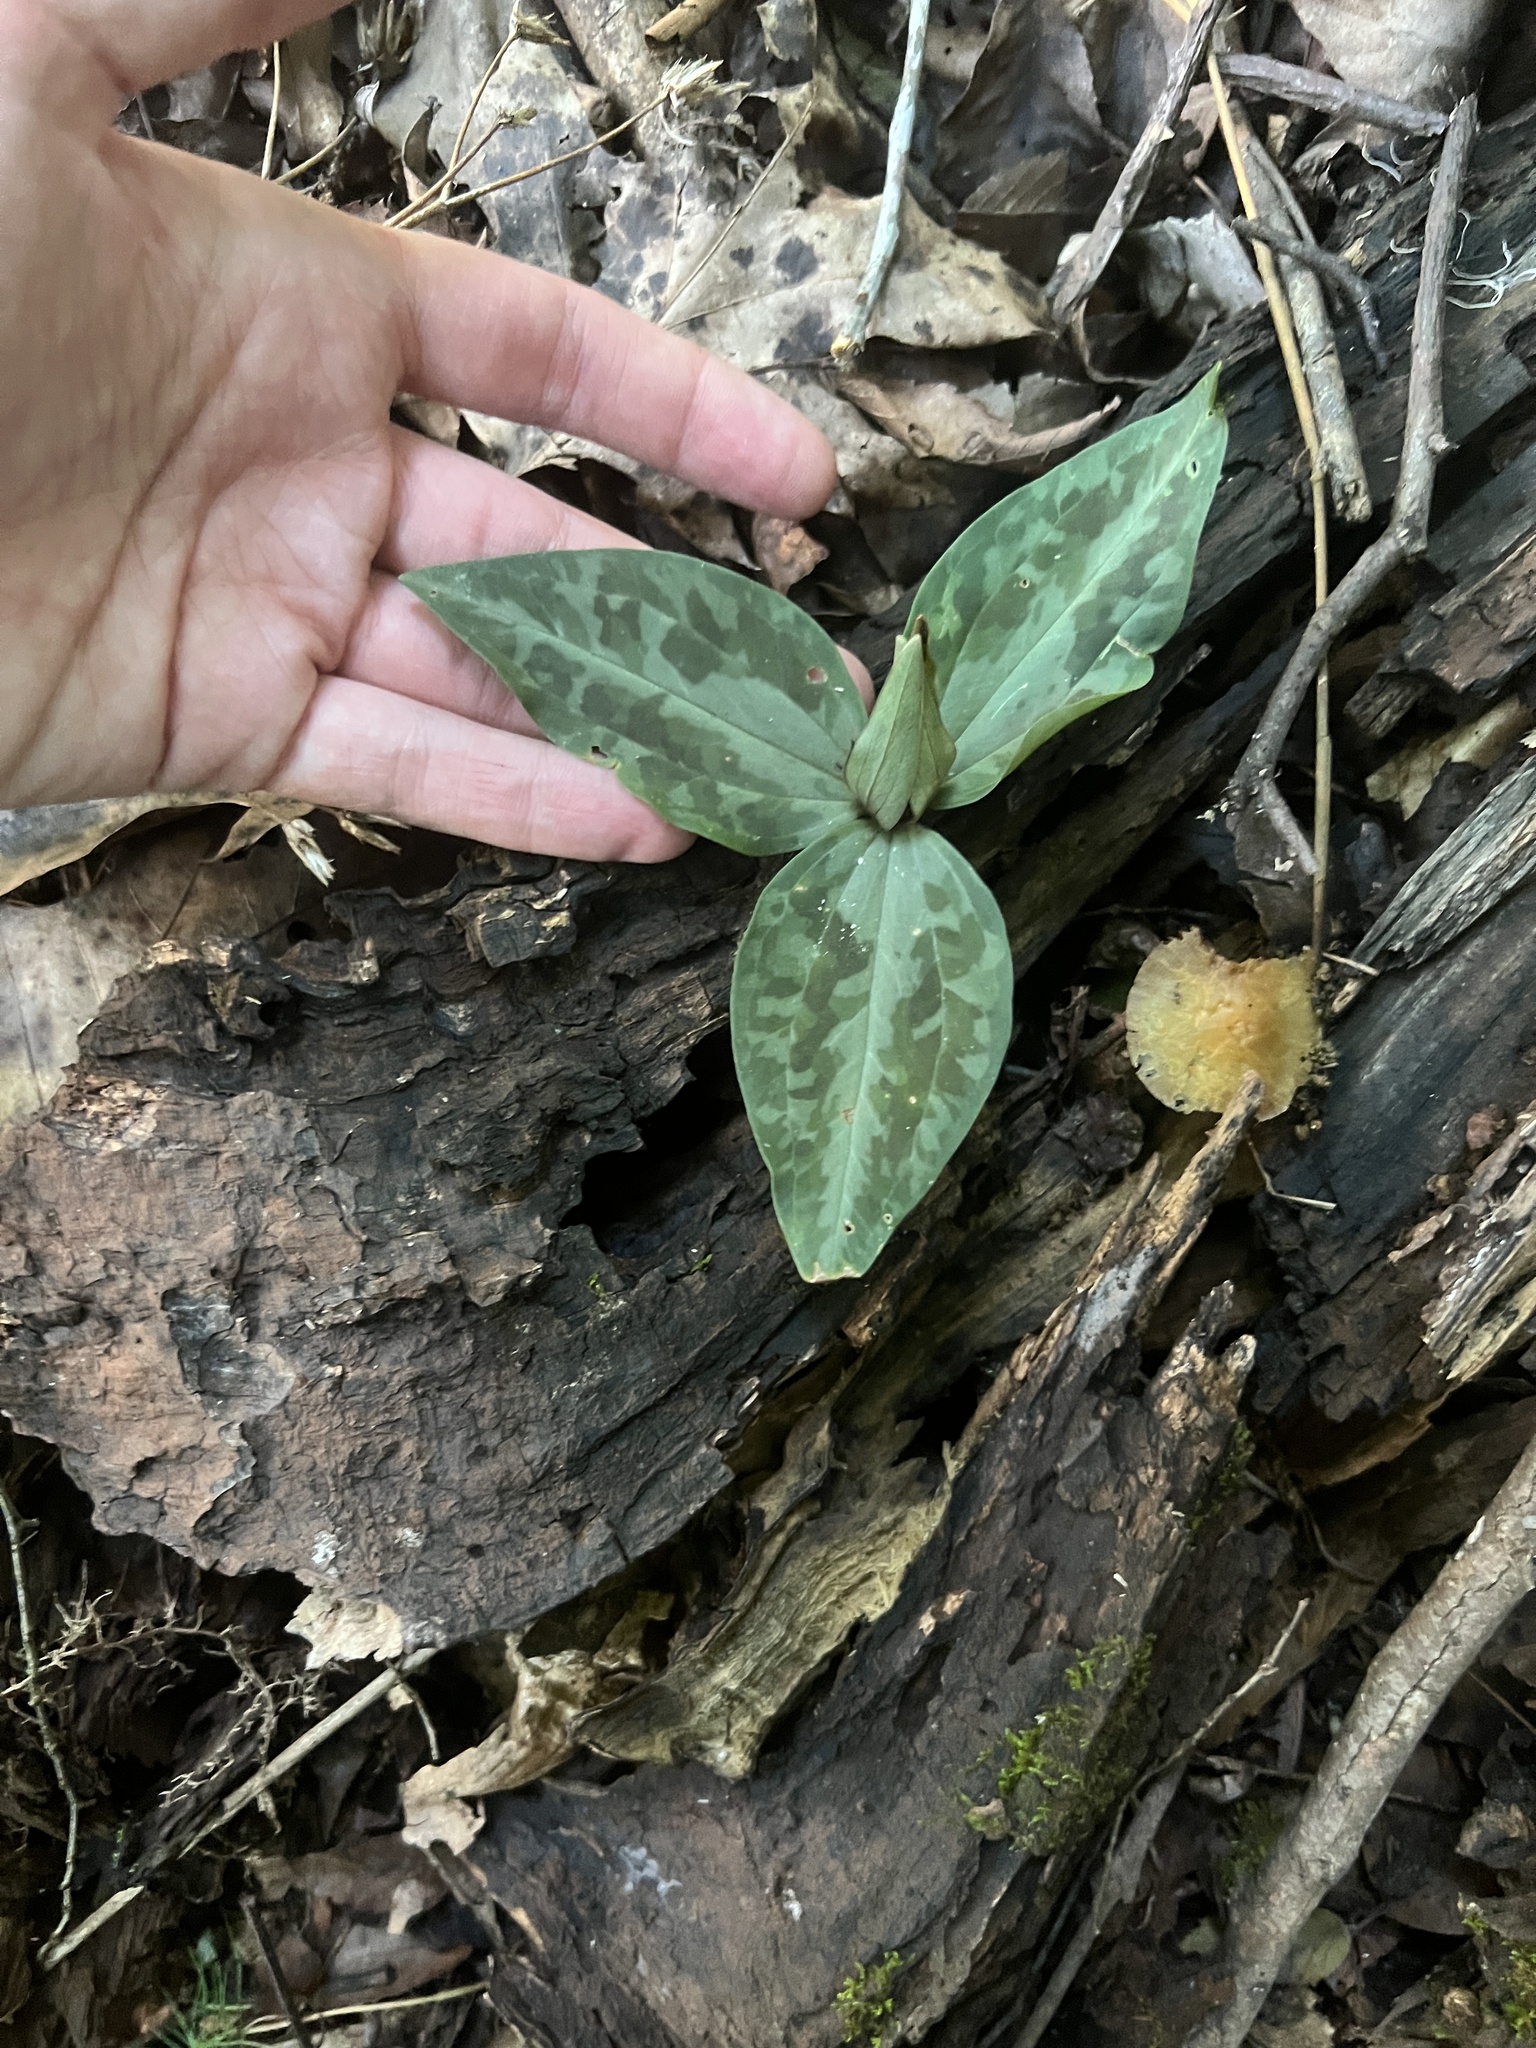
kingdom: Plantae
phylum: Tracheophyta
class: Liliopsida
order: Liliales
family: Melanthiaceae
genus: Trillium
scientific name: Trillium underwoodii
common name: Longbract wakerobin
